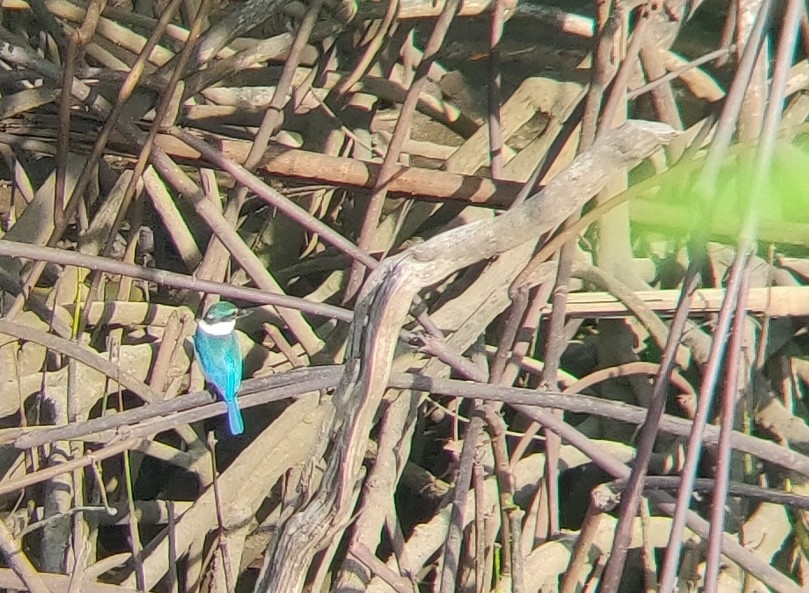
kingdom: Animalia
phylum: Chordata
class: Aves
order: Coraciiformes
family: Alcedinidae
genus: Todiramphus
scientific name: Todiramphus chloris
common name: Collared kingfisher
